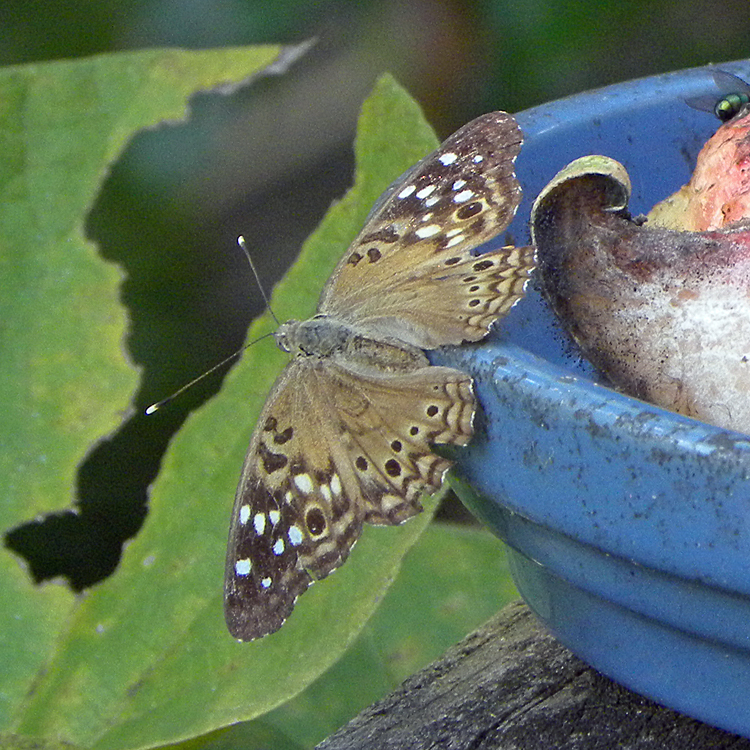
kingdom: Animalia
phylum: Arthropoda
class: Insecta
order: Lepidoptera
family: Nymphalidae
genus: Asterocampa
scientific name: Asterocampa celtis
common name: Hackberry emperor
